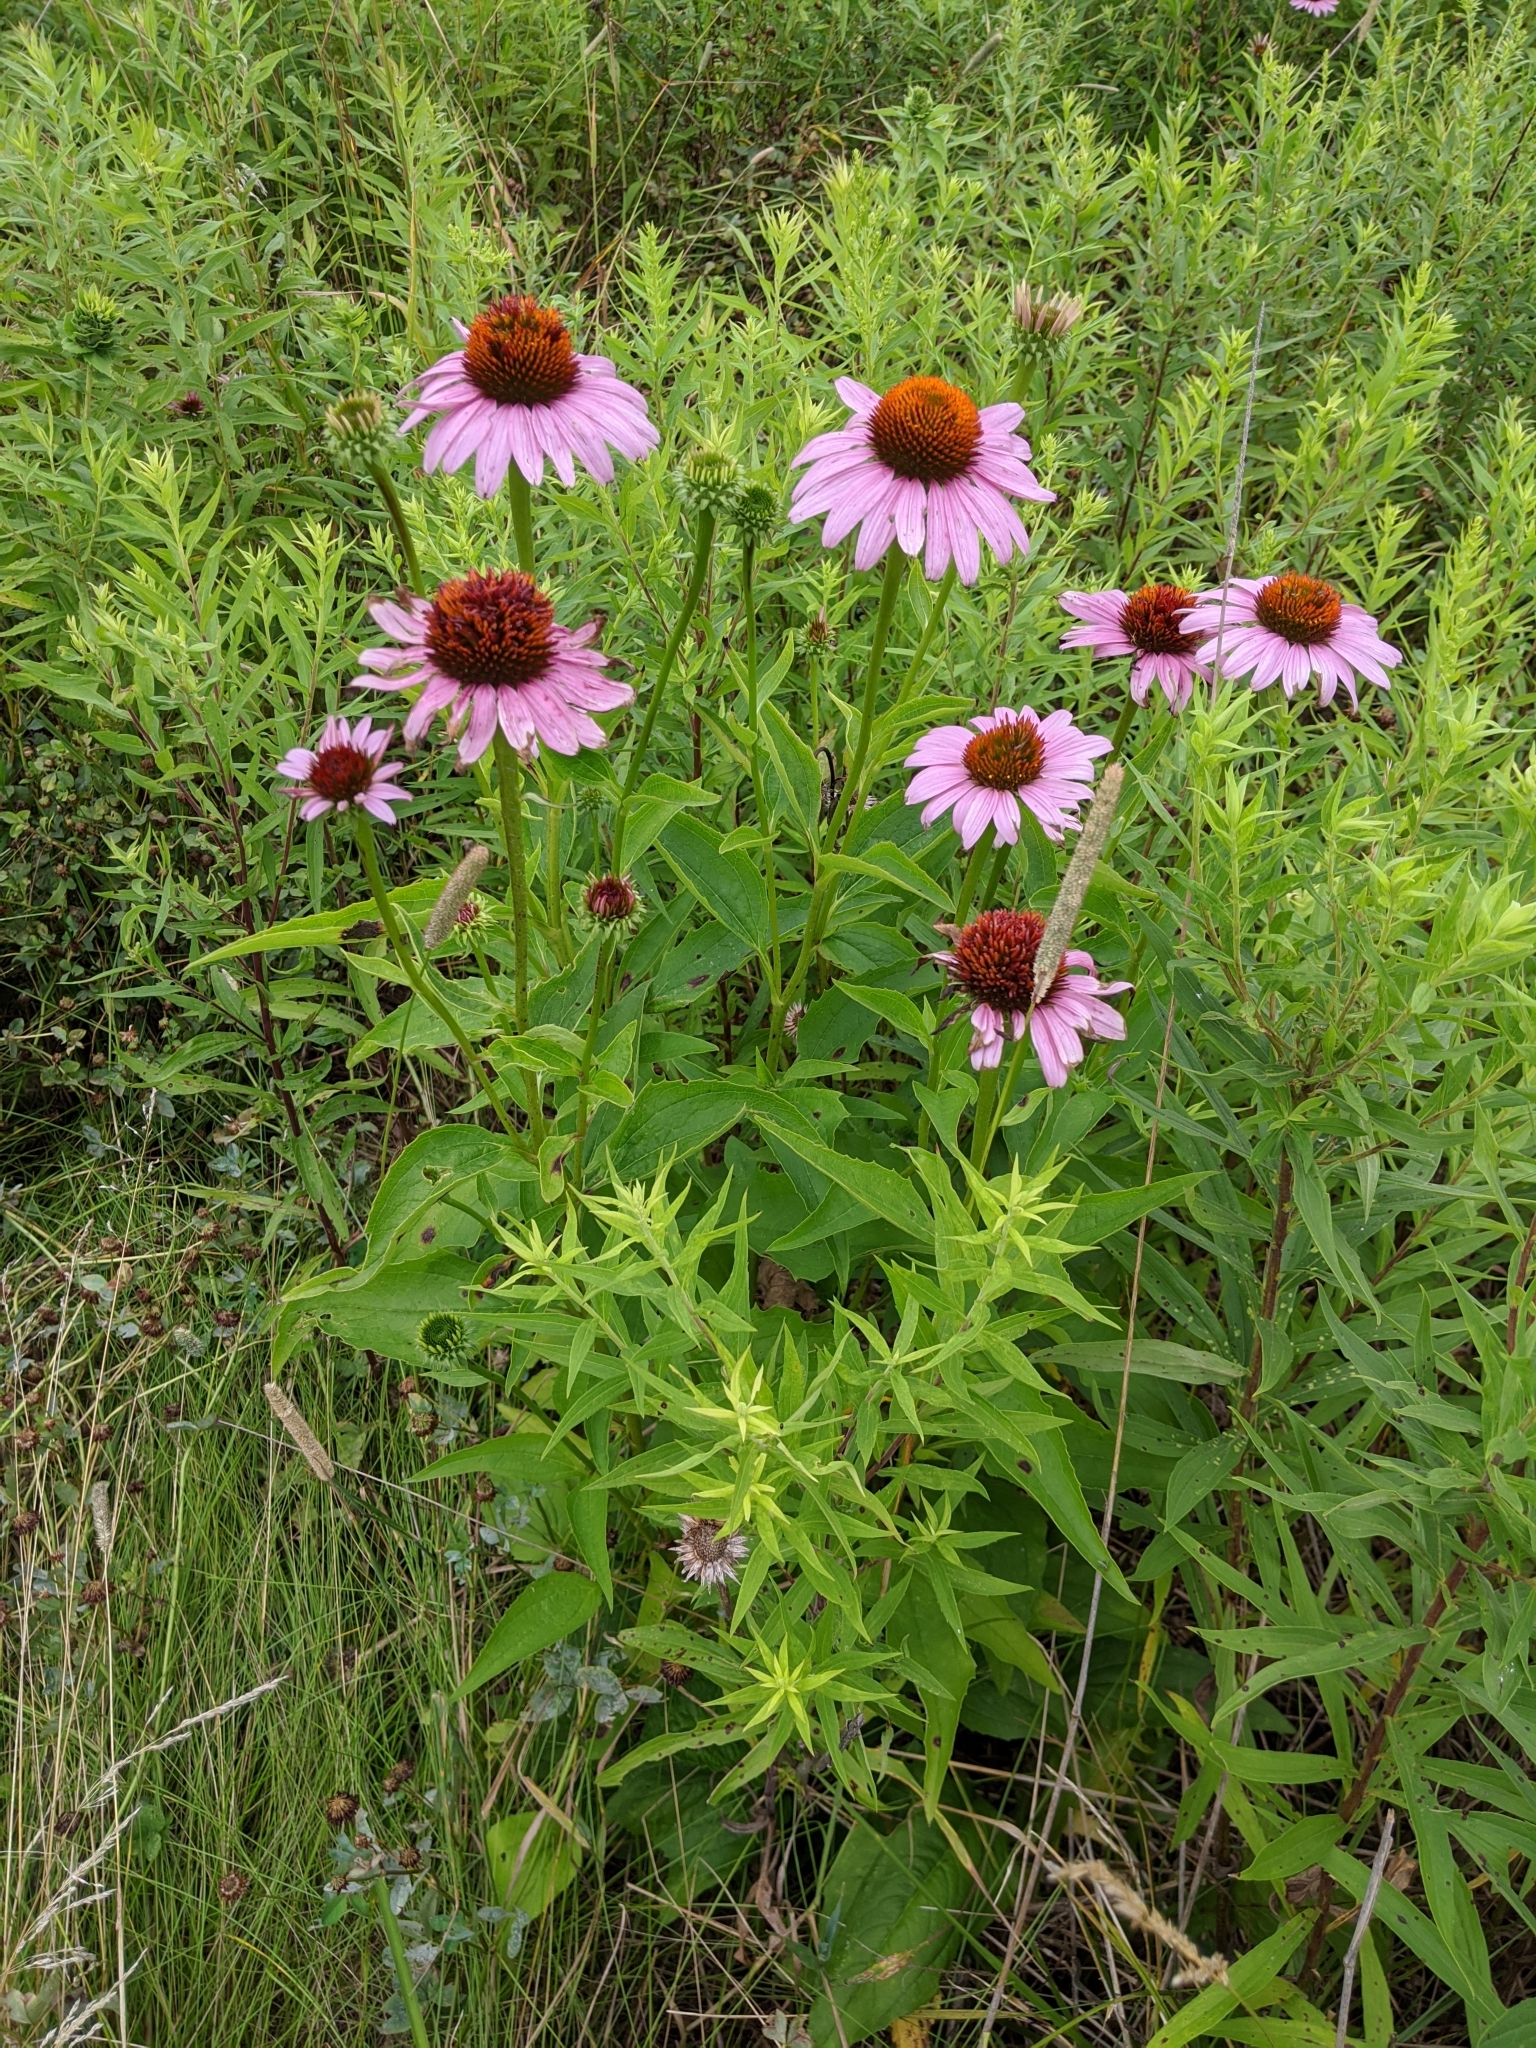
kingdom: Plantae
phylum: Tracheophyta
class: Magnoliopsida
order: Asterales
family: Asteraceae
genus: Echinacea
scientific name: Echinacea purpurea
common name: Broad-leaved purple coneflower
